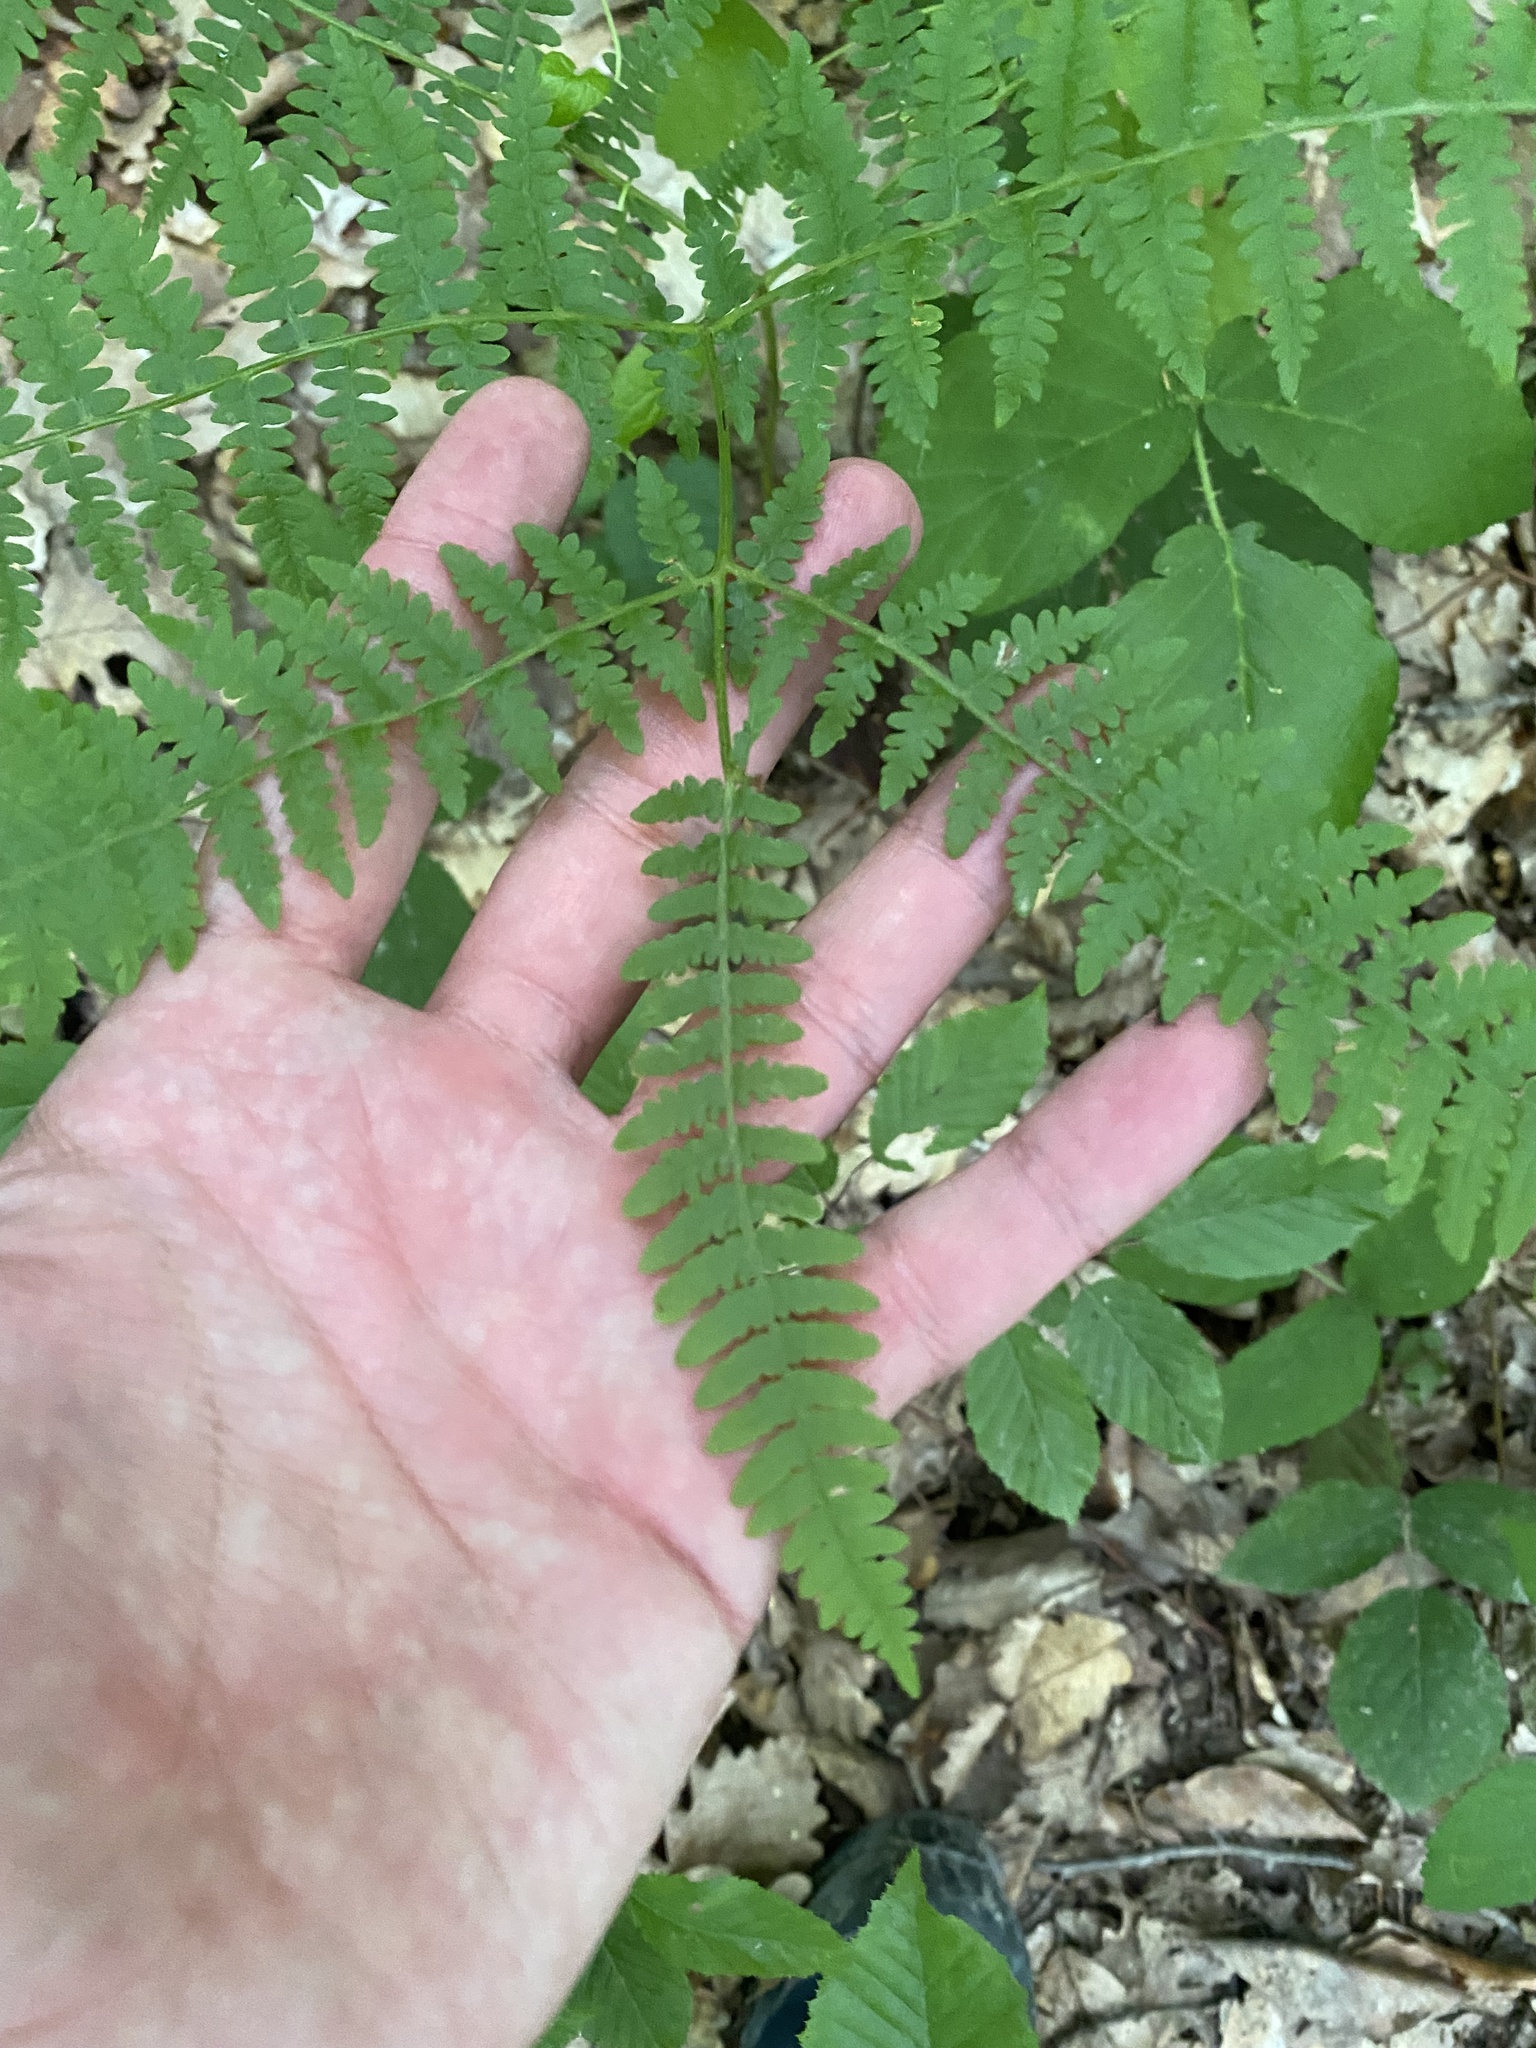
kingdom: Plantae
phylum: Tracheophyta
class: Polypodiopsida
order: Polypodiales
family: Dennstaedtiaceae
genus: Pteridium
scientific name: Pteridium tauricum
